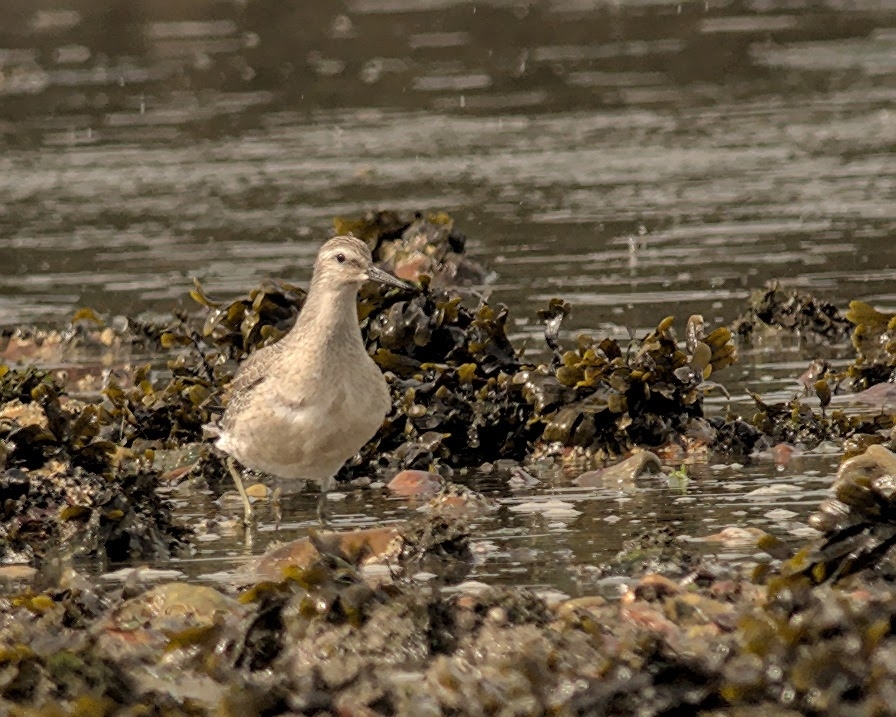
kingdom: Animalia
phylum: Chordata
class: Aves
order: Charadriiformes
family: Scolopacidae
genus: Calidris
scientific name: Calidris canutus
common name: Red knot
